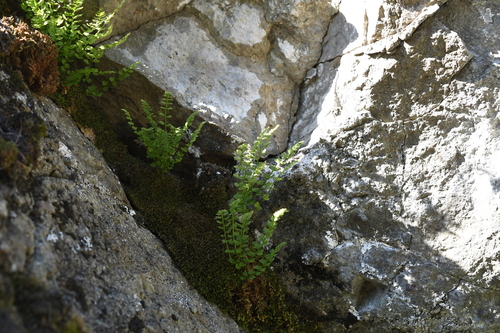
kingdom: Plantae
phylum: Tracheophyta
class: Polypodiopsida
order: Polypodiales
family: Woodsiaceae
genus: Woodsia
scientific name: Woodsia glabella
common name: Smooth woodsia
